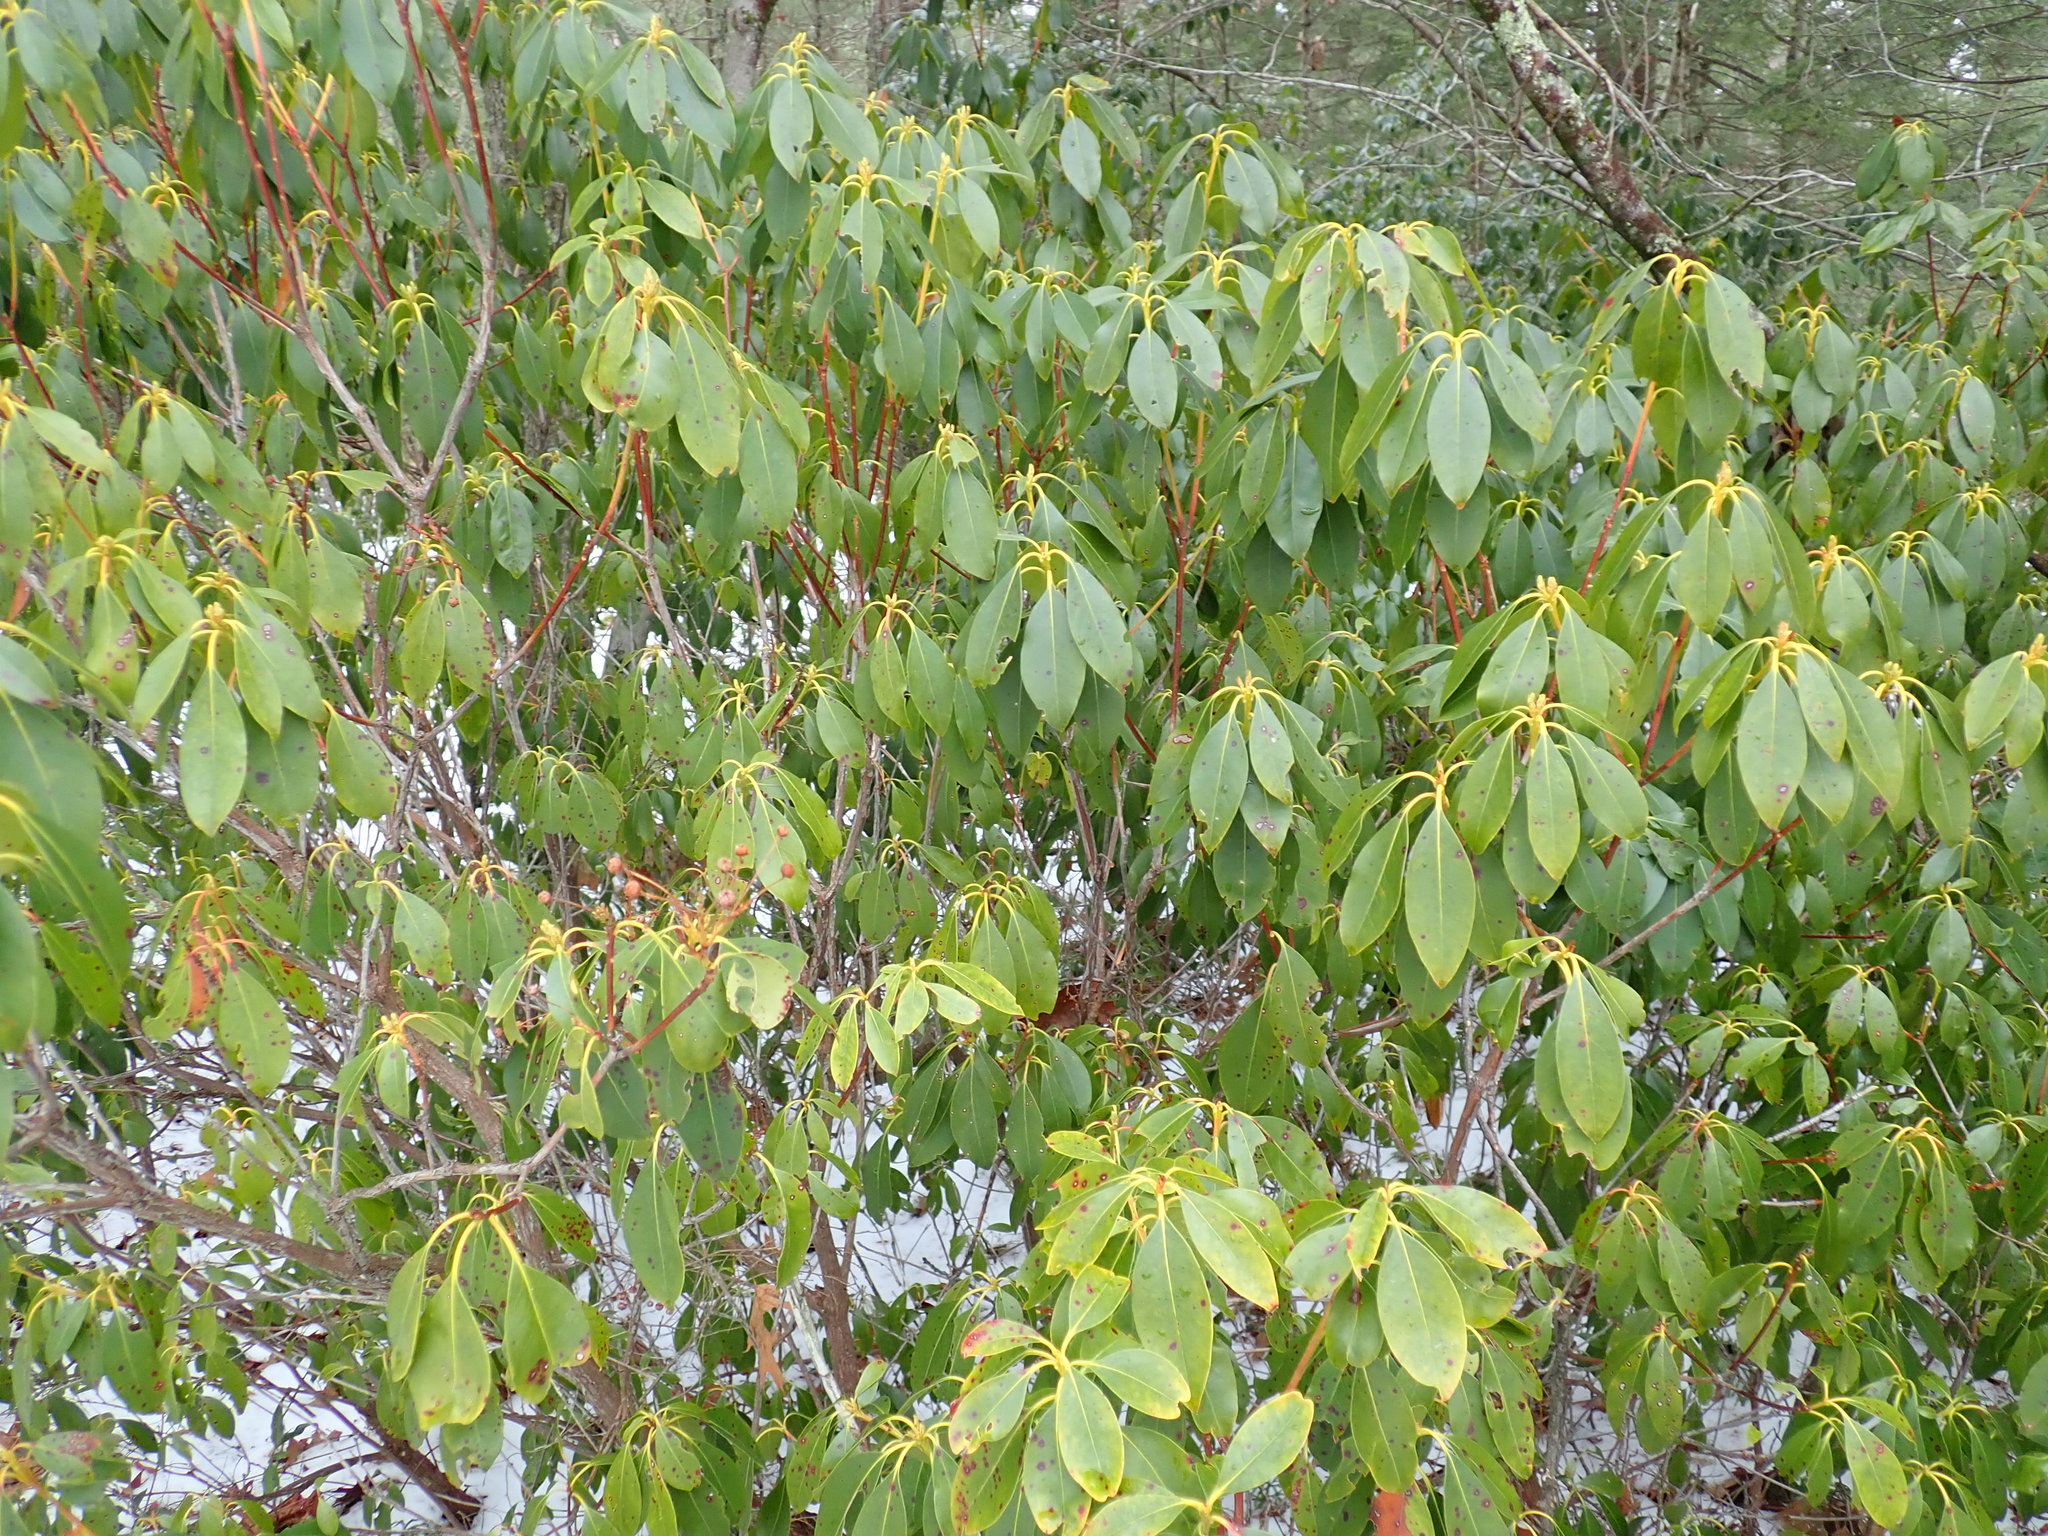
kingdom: Plantae
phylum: Tracheophyta
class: Magnoliopsida
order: Ericales
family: Ericaceae
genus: Kalmia
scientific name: Kalmia latifolia
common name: Mountain-laurel
